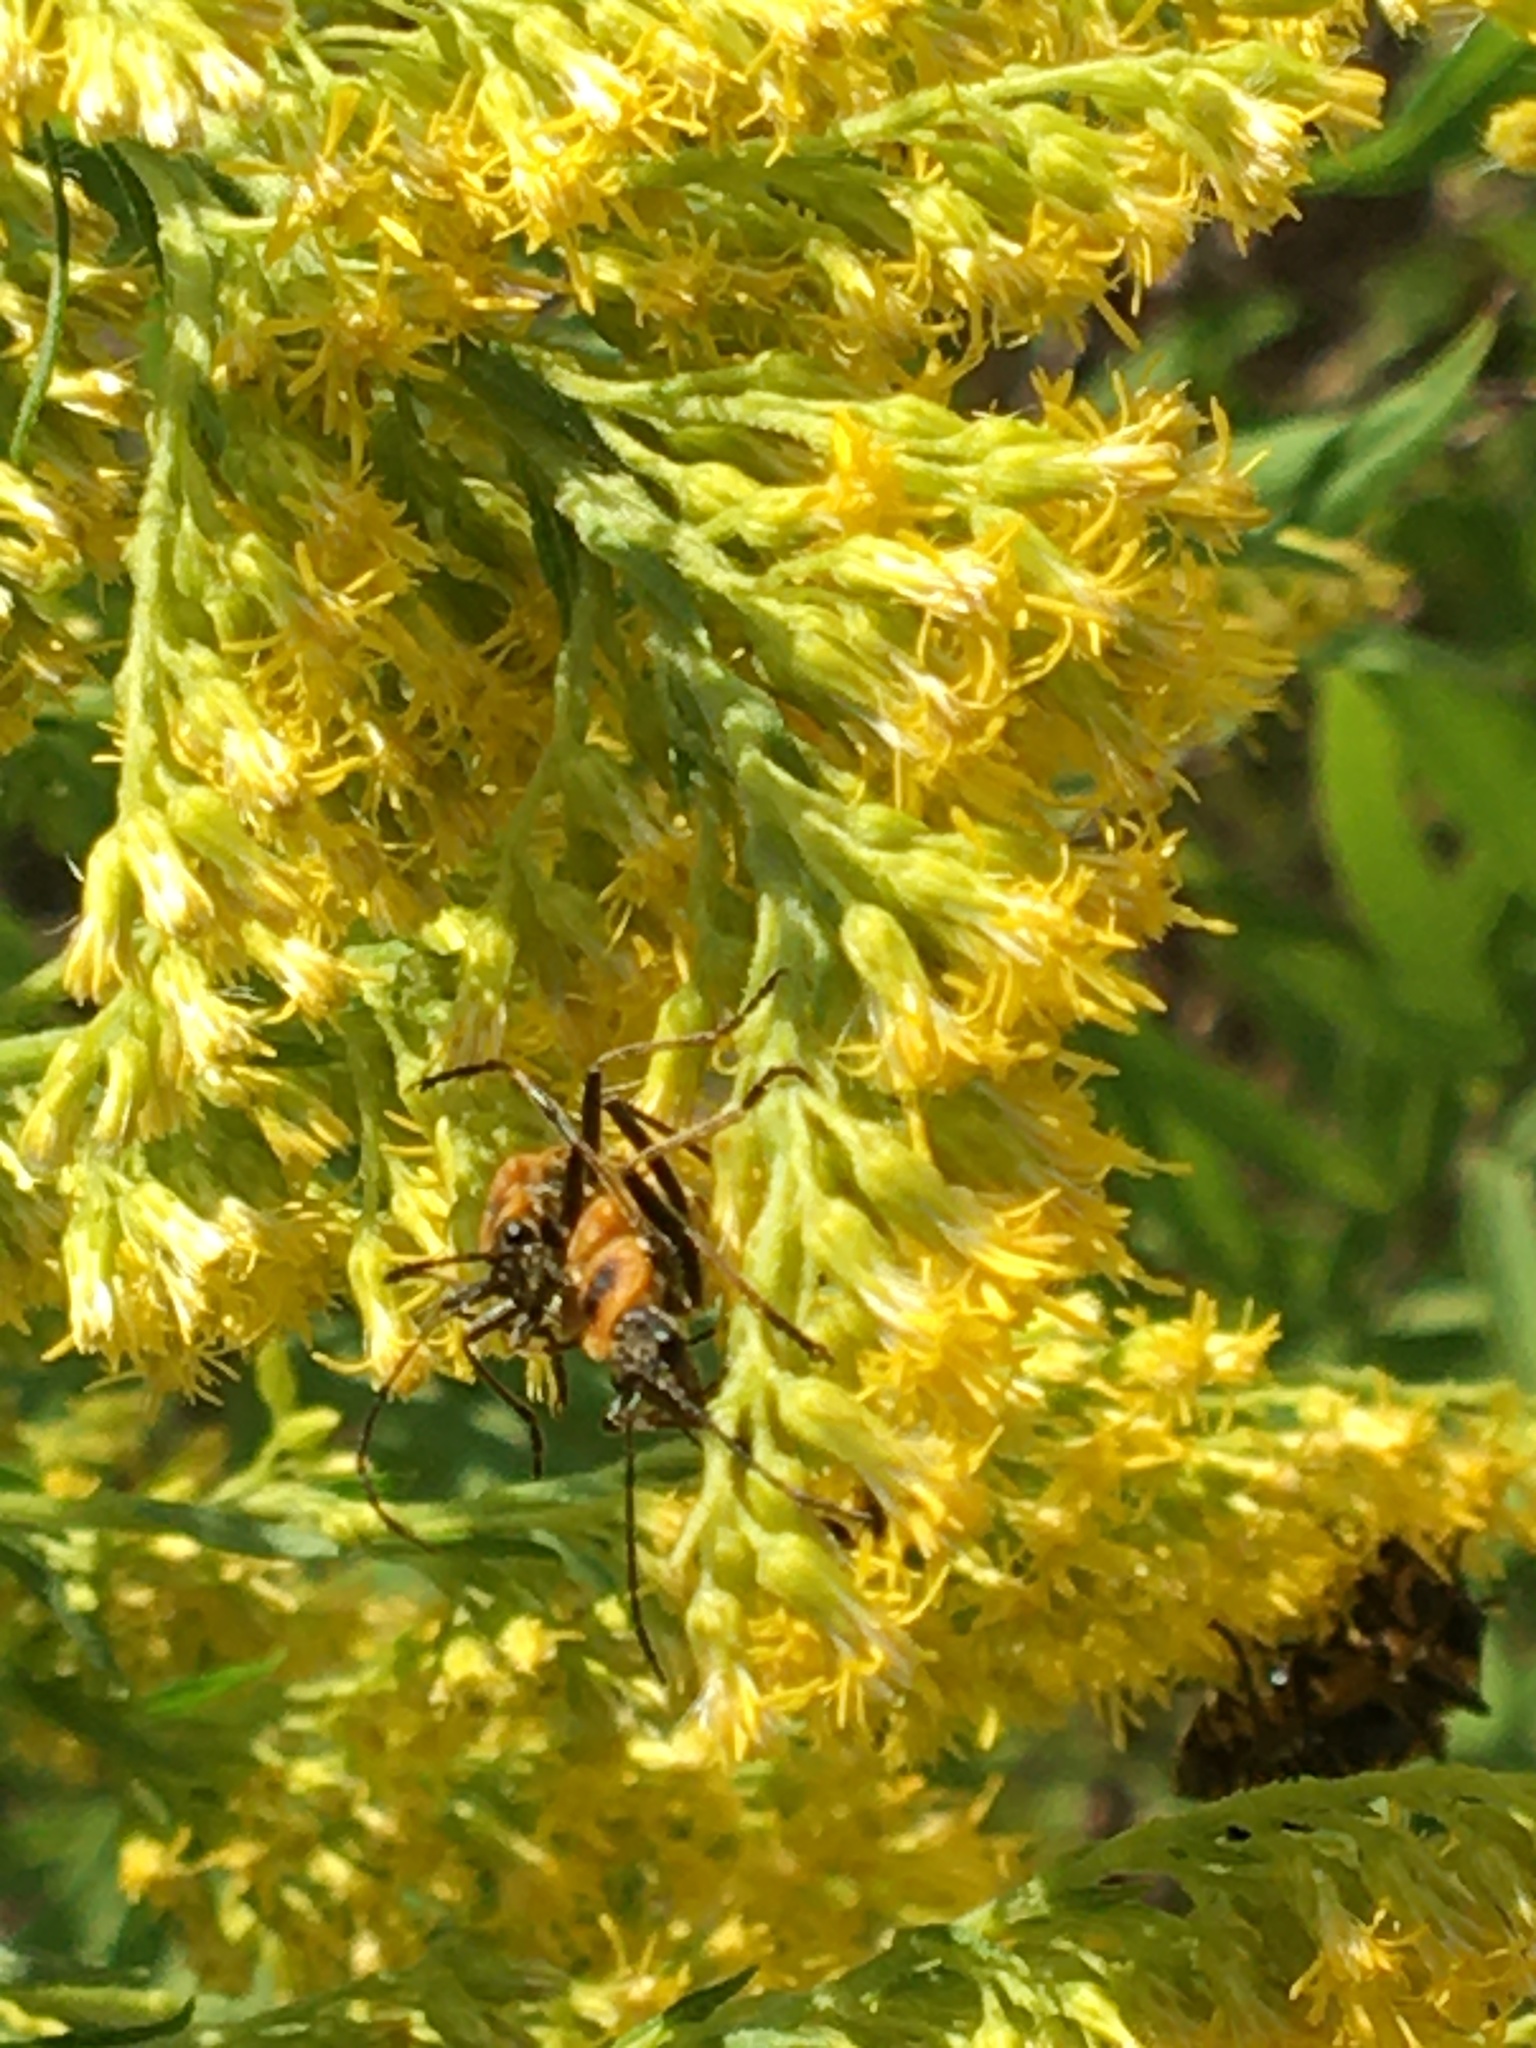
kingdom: Animalia
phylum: Arthropoda
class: Insecta
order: Coleoptera
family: Cantharidae
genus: Chauliognathus
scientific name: Chauliognathus pensylvanicus
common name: Goldenrod soldier beetle
